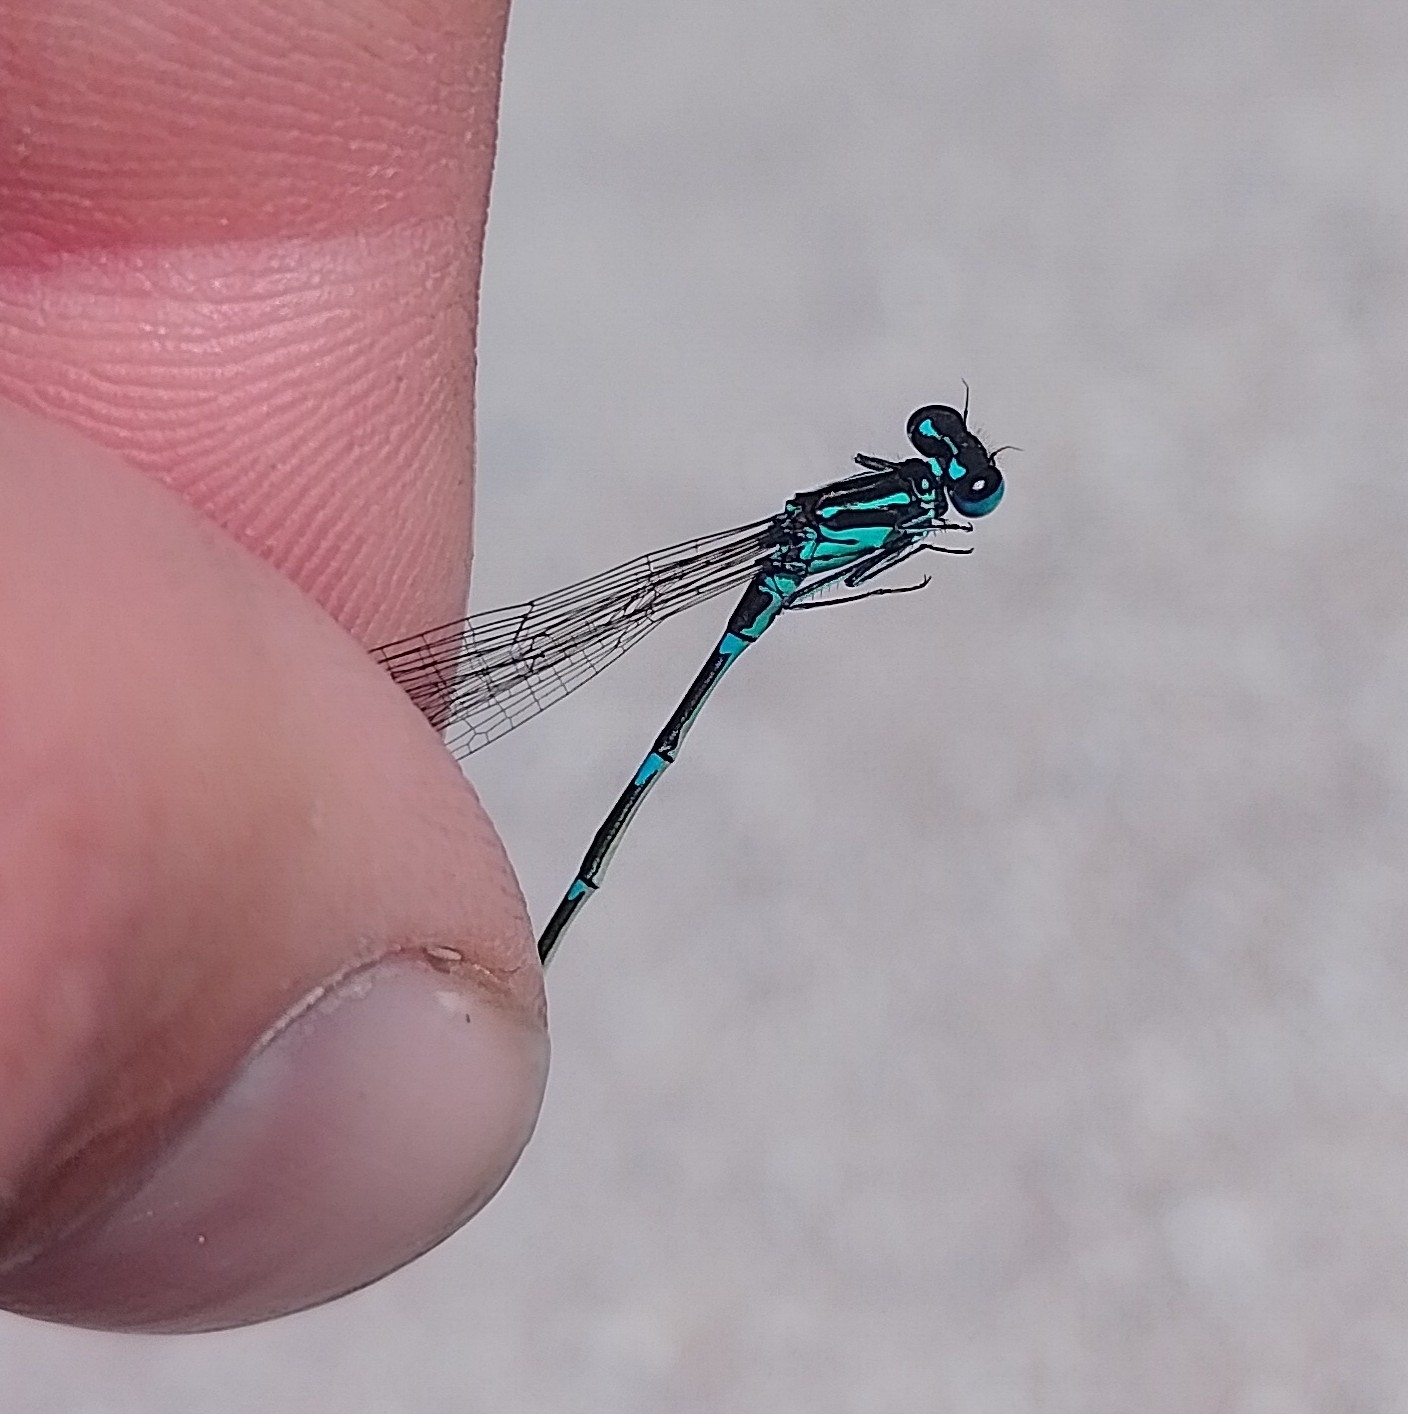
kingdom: Animalia
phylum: Arthropoda
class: Insecta
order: Odonata
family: Coenagrionidae
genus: Coenagrion
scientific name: Coenagrion pulchellum
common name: Variable bluet
